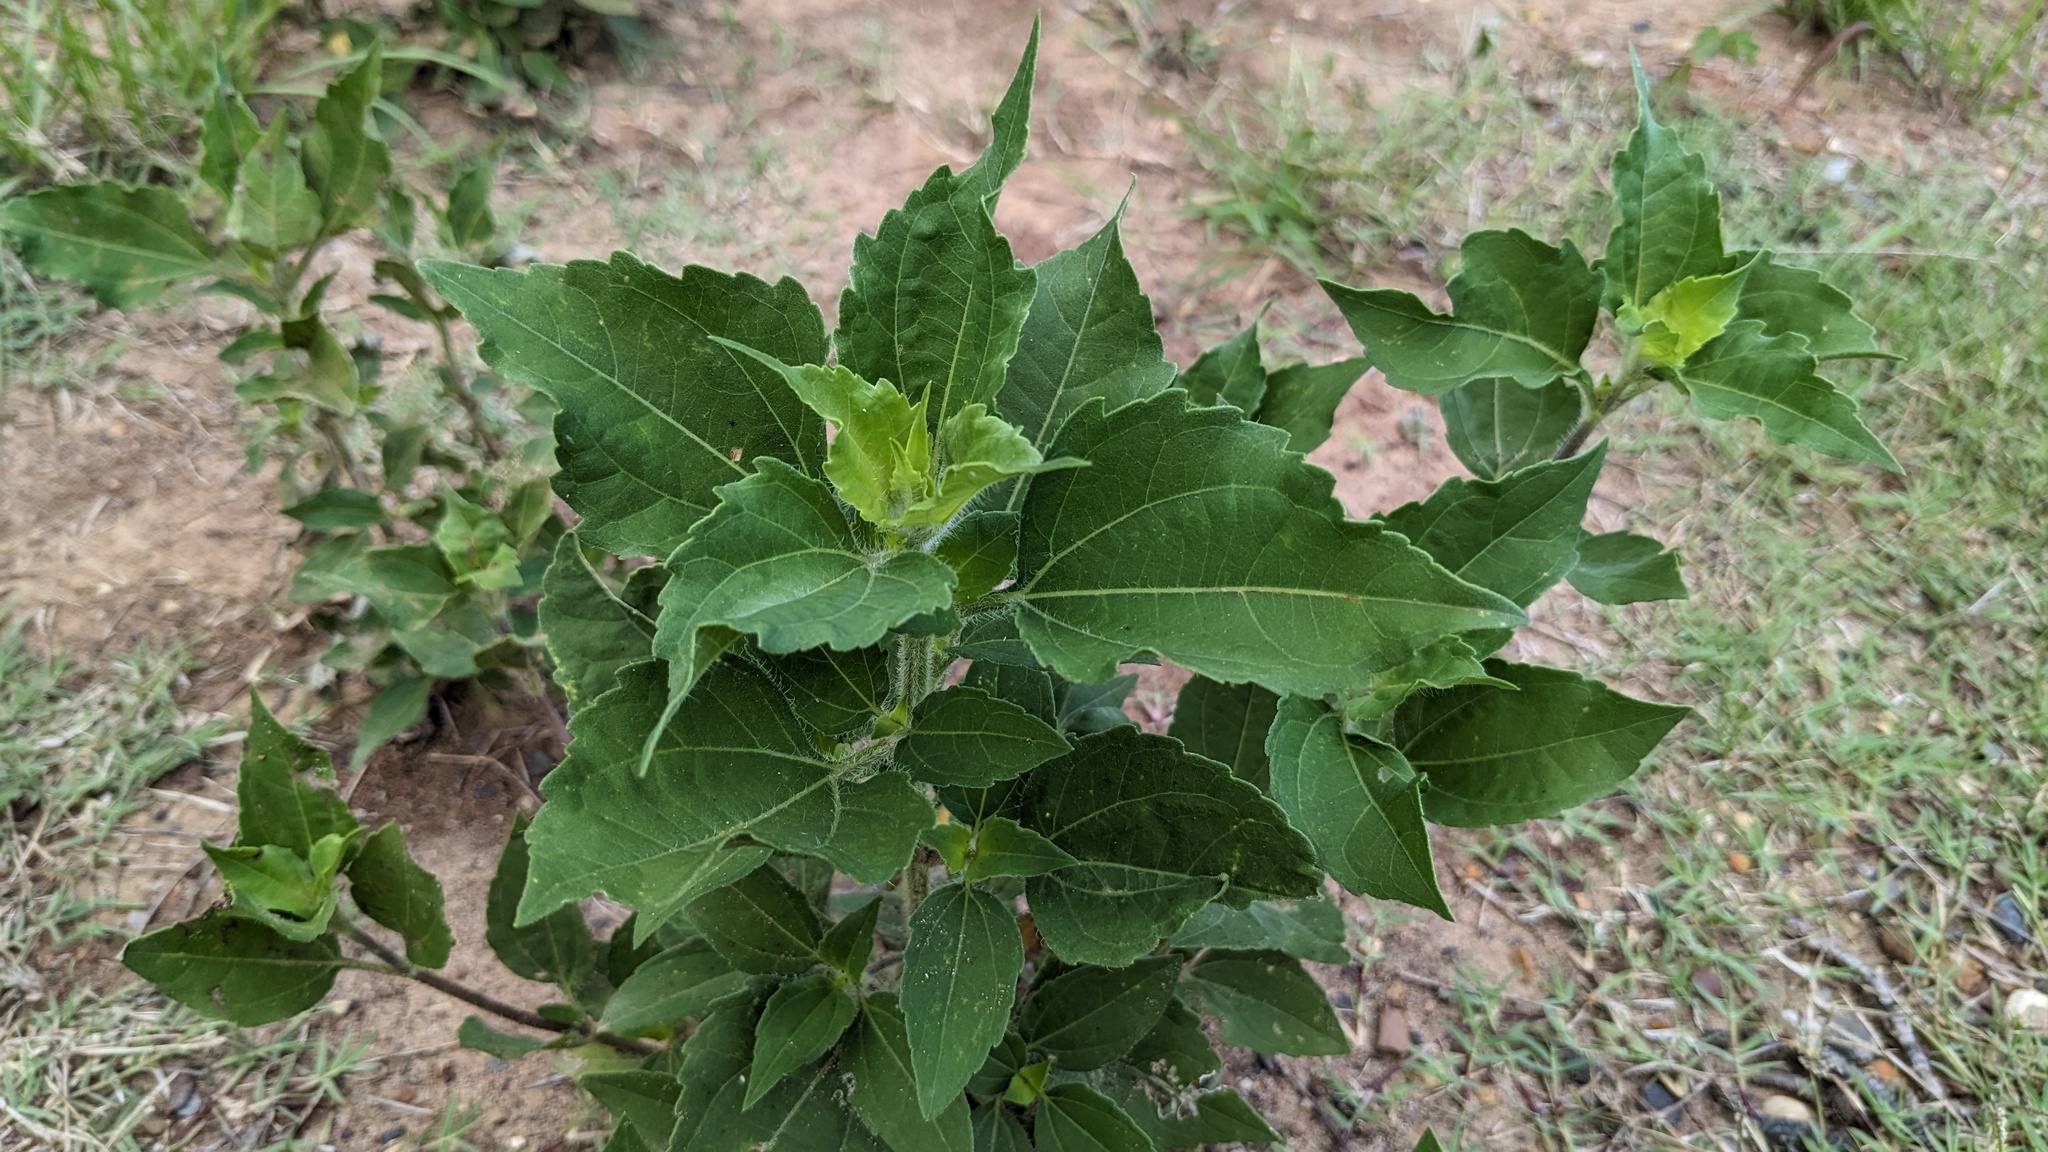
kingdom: Plantae
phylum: Tracheophyta
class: Magnoliopsida
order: Asterales
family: Asteraceae
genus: Iva
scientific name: Iva annua
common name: Marsh-elder
